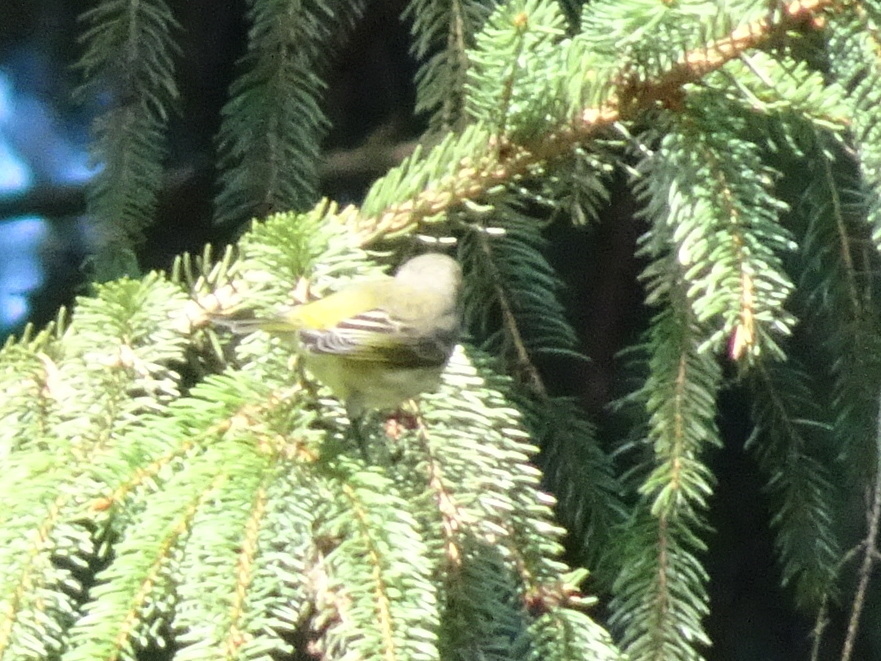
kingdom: Animalia
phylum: Chordata
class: Aves
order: Passeriformes
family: Parulidae
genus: Setophaga
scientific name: Setophaga tigrina
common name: Cape may warbler
